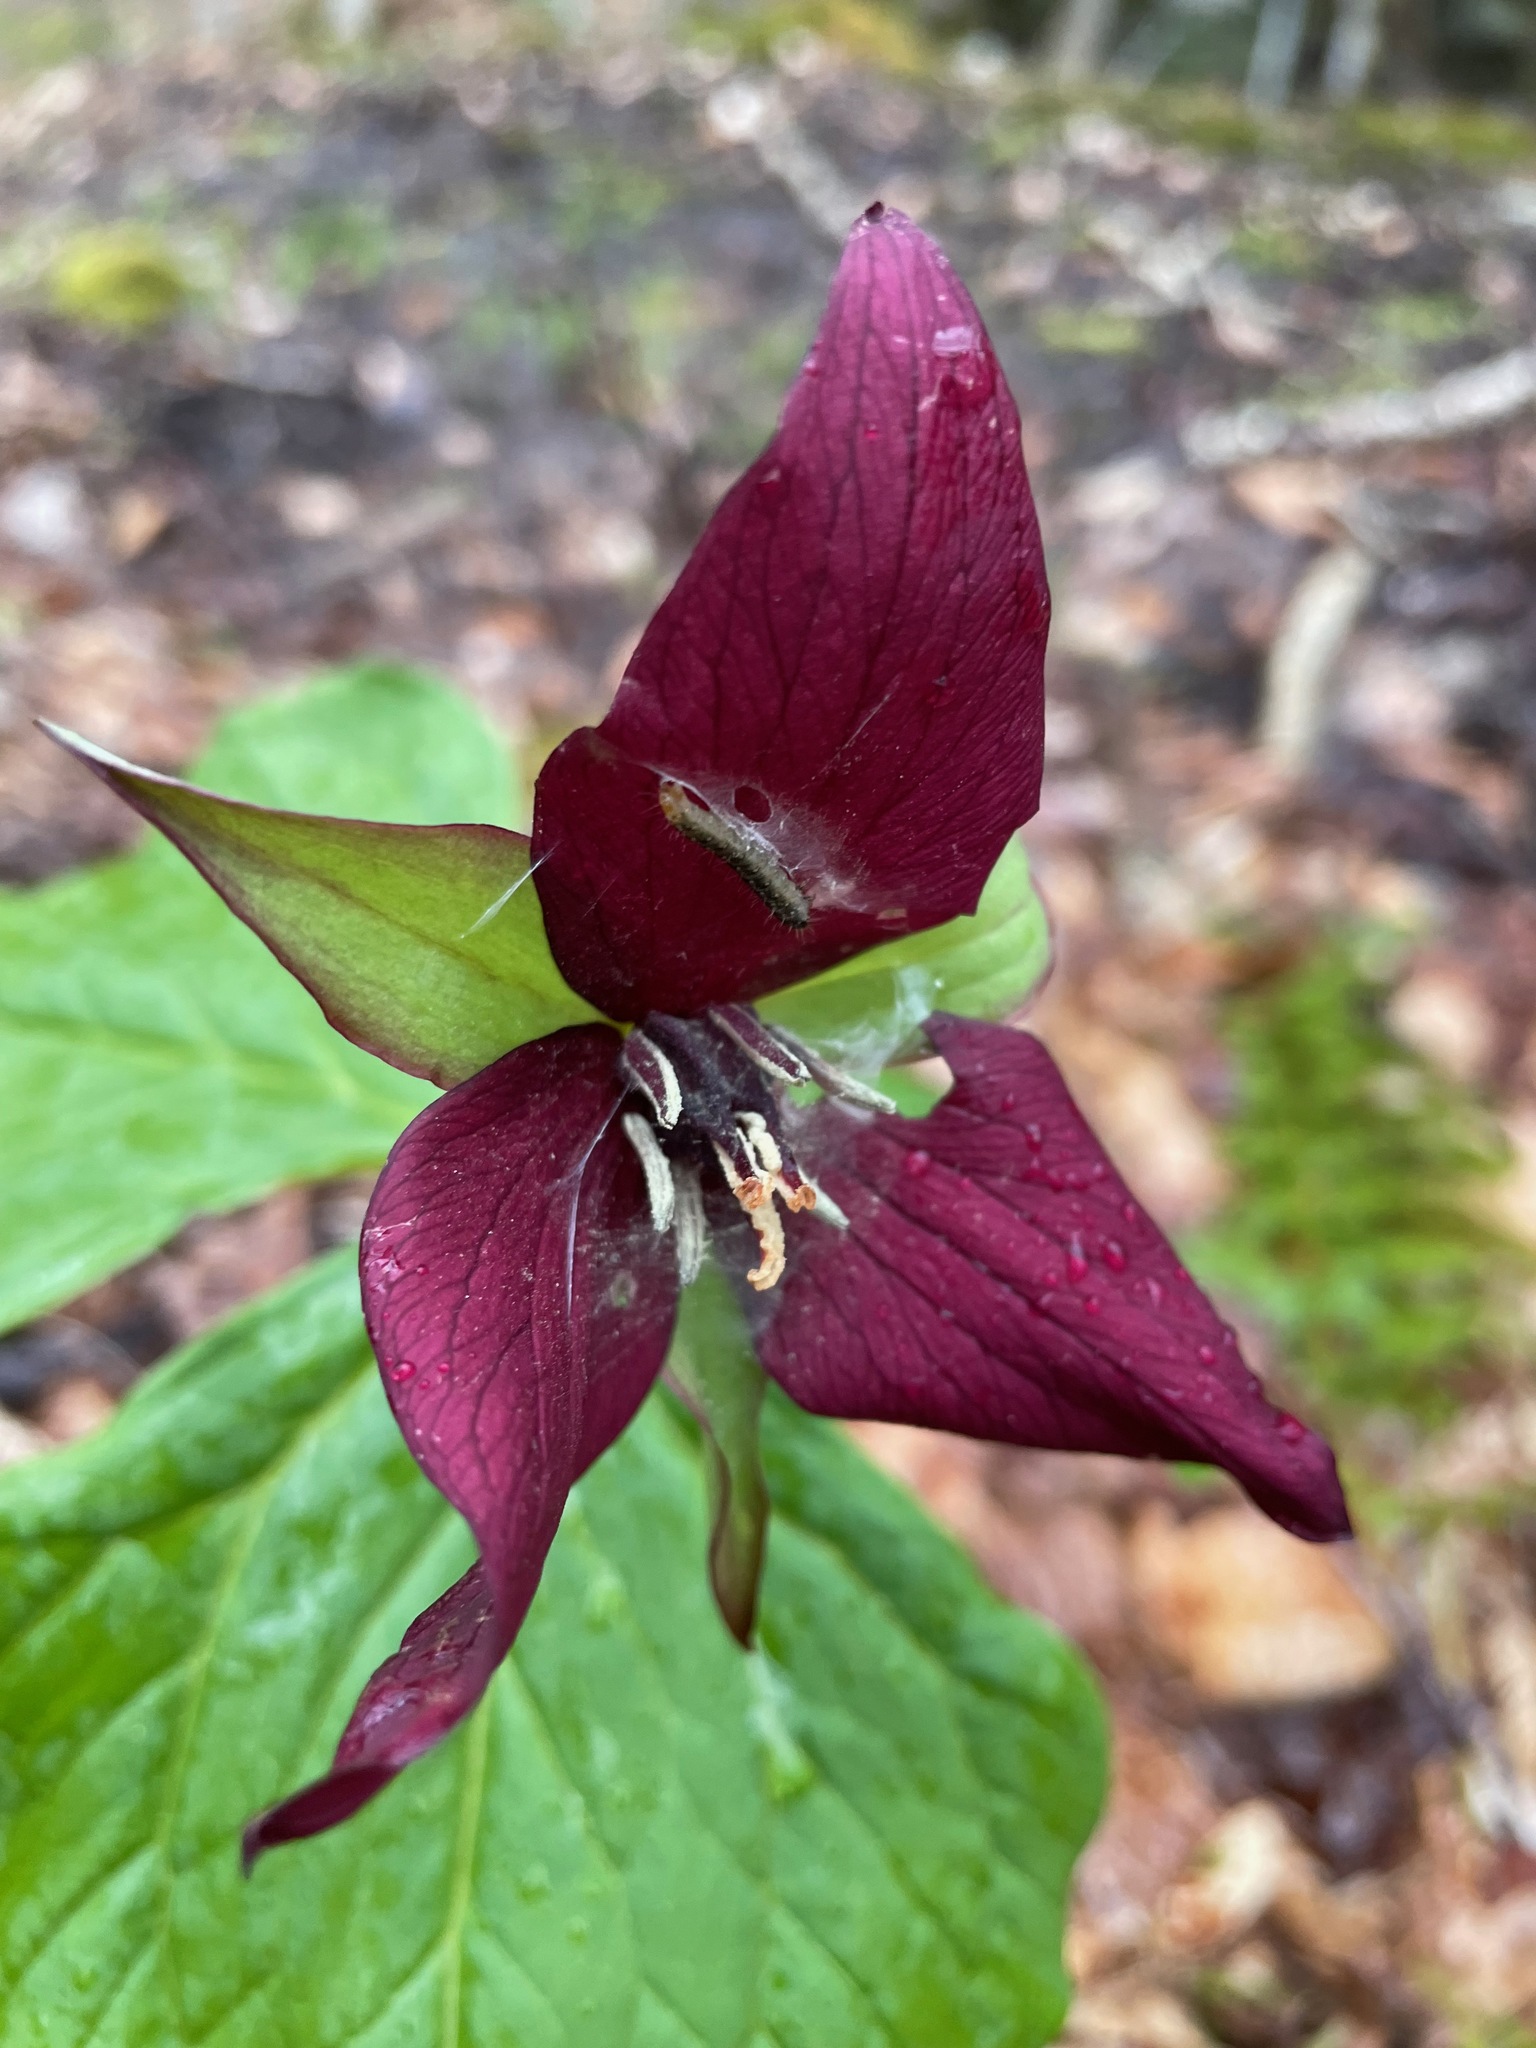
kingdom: Plantae
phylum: Tracheophyta
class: Liliopsida
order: Liliales
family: Melanthiaceae
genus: Trillium
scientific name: Trillium erectum
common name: Purple trillium
